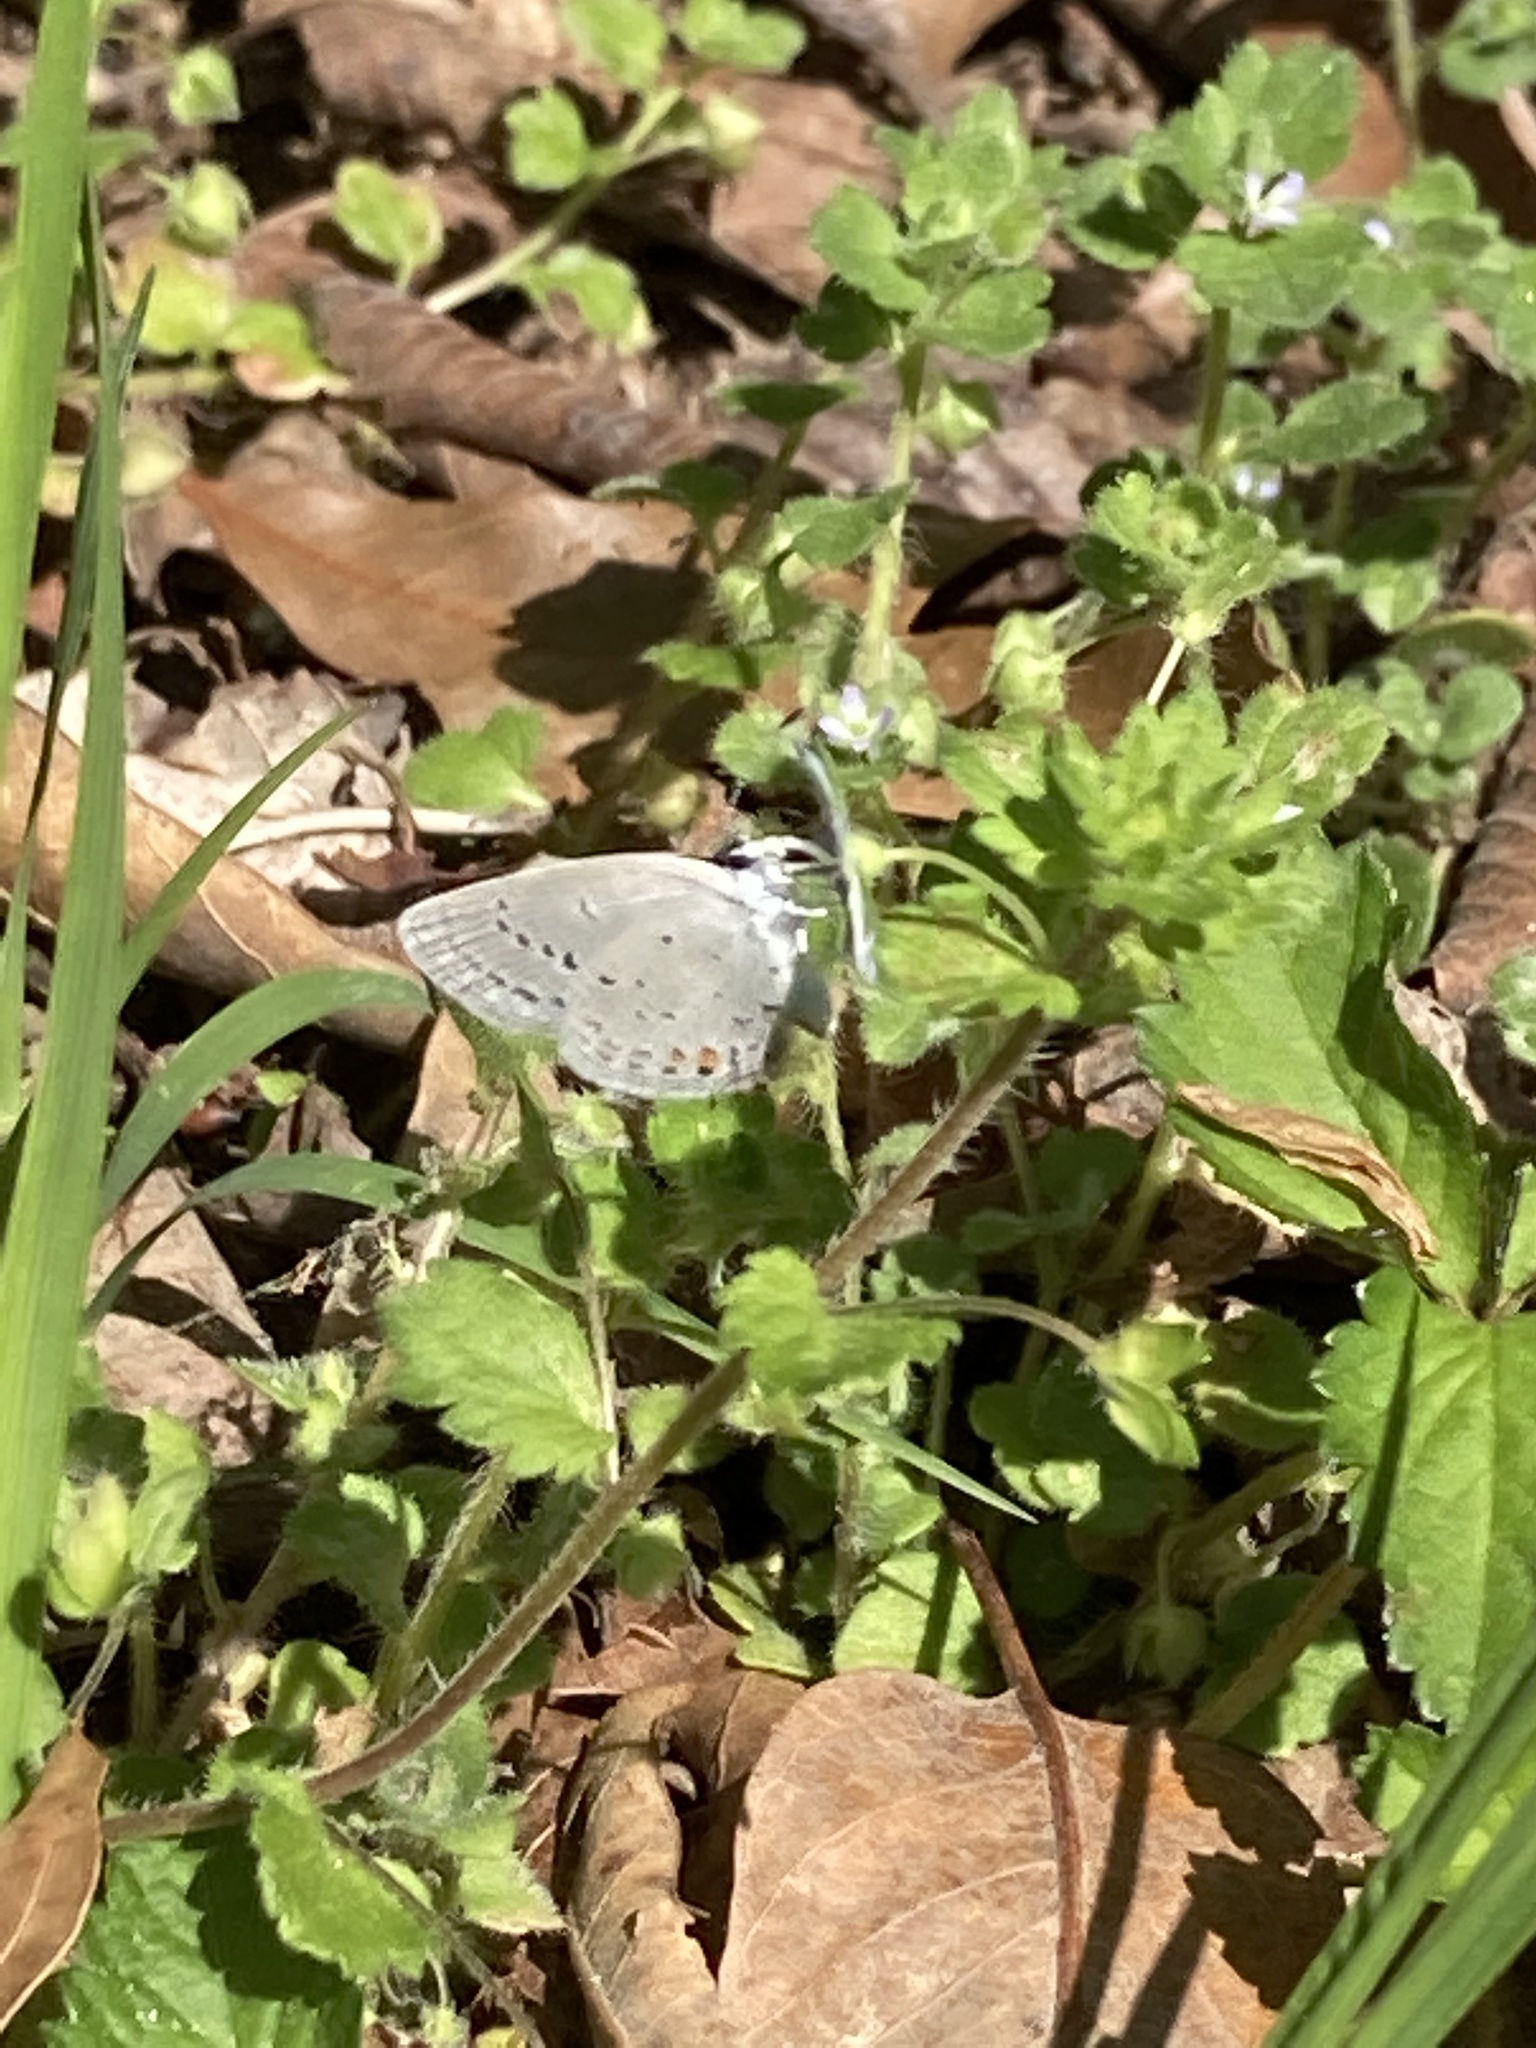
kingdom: Animalia
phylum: Arthropoda
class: Insecta
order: Lepidoptera
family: Lycaenidae
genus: Elkalyce
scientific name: Elkalyce comyntas
